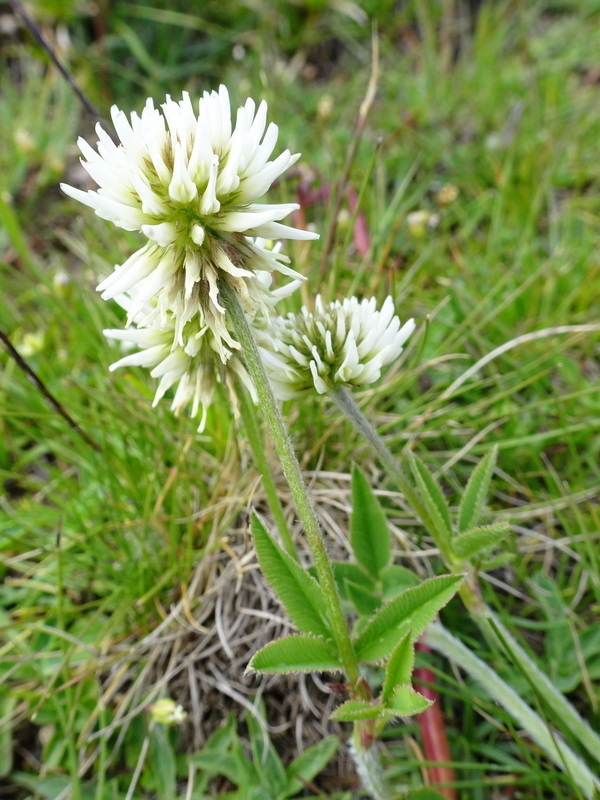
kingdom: Plantae
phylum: Tracheophyta
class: Magnoliopsida
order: Fabales
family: Fabaceae
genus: Trifolium
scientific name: Trifolium montanum
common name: Mountain clover
